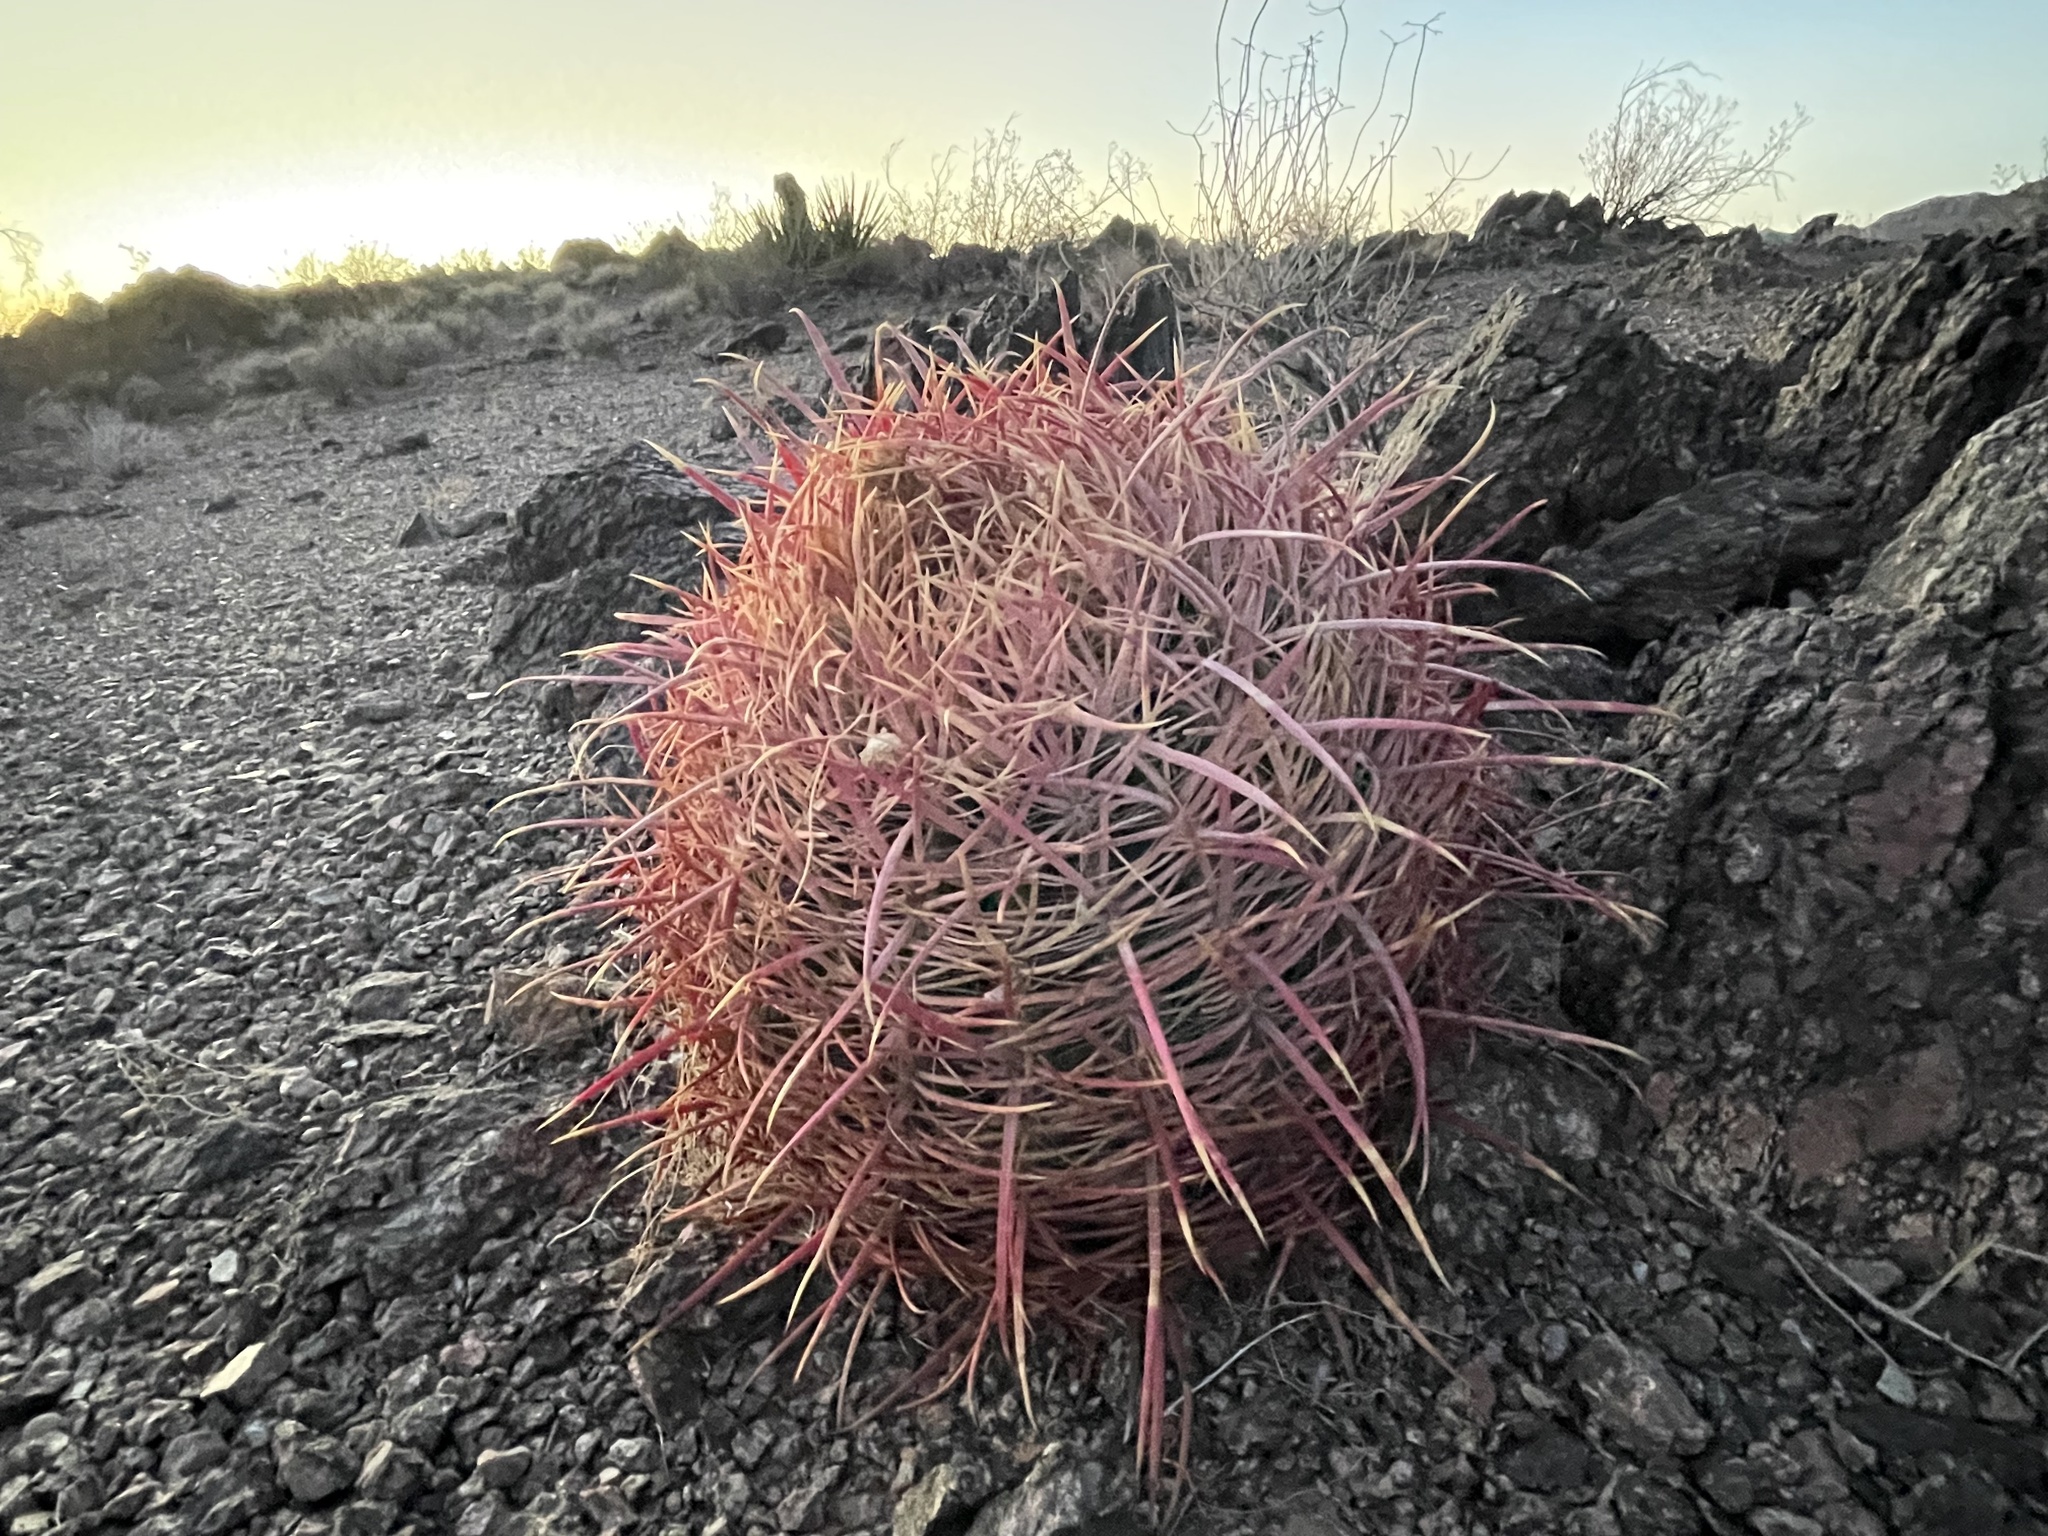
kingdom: Plantae
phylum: Tracheophyta
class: Magnoliopsida
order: Caryophyllales
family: Cactaceae
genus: Ferocactus
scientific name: Ferocactus cylindraceus
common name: California barrel cactus
